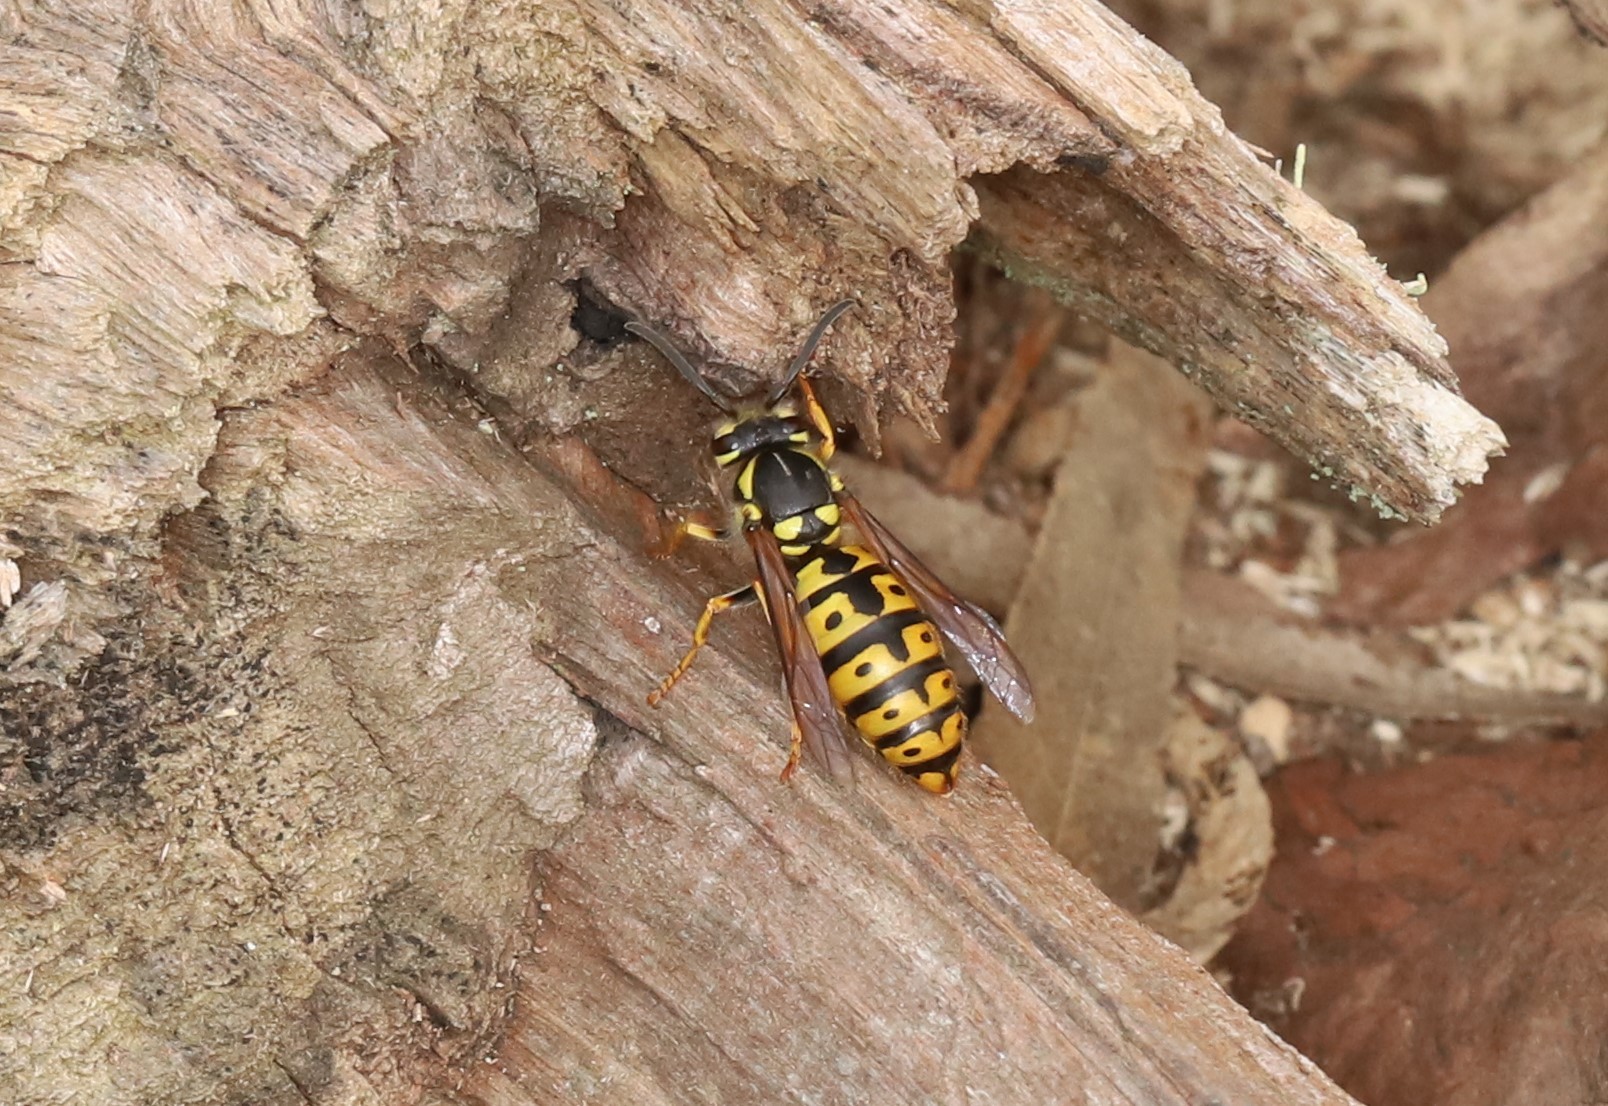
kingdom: Animalia
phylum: Arthropoda
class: Insecta
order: Hymenoptera
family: Vespidae
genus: Vespula
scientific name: Vespula germanica
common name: German wasp
